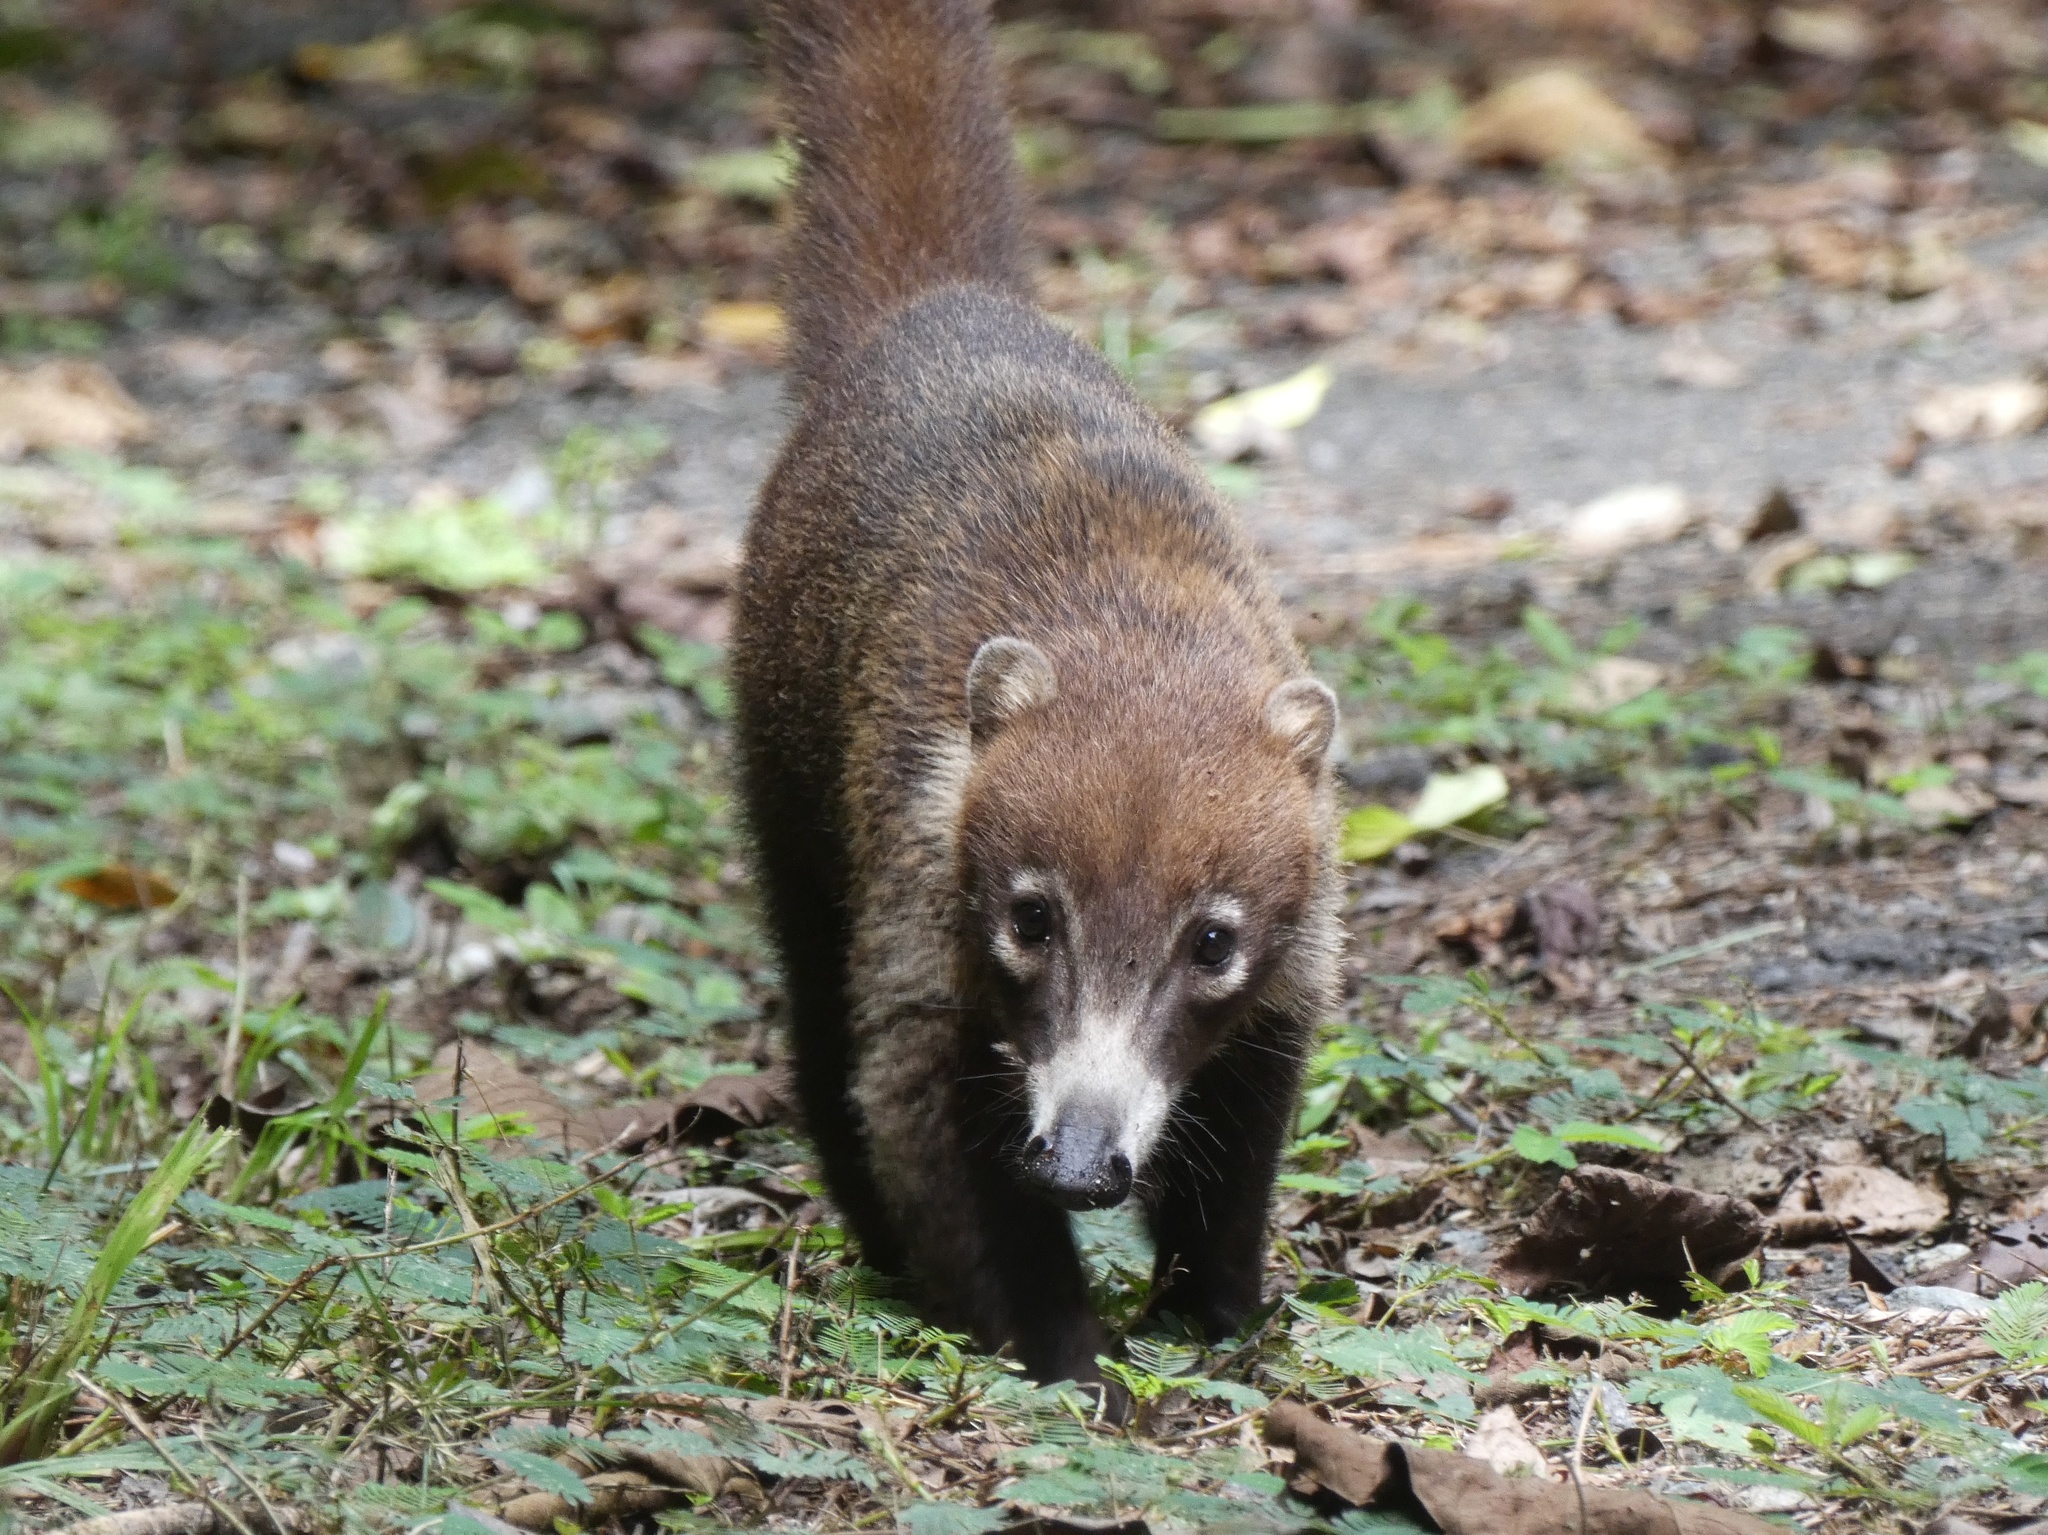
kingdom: Animalia
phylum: Chordata
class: Mammalia
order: Carnivora
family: Procyonidae
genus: Nasua
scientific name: Nasua narica
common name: White-nosed coati
